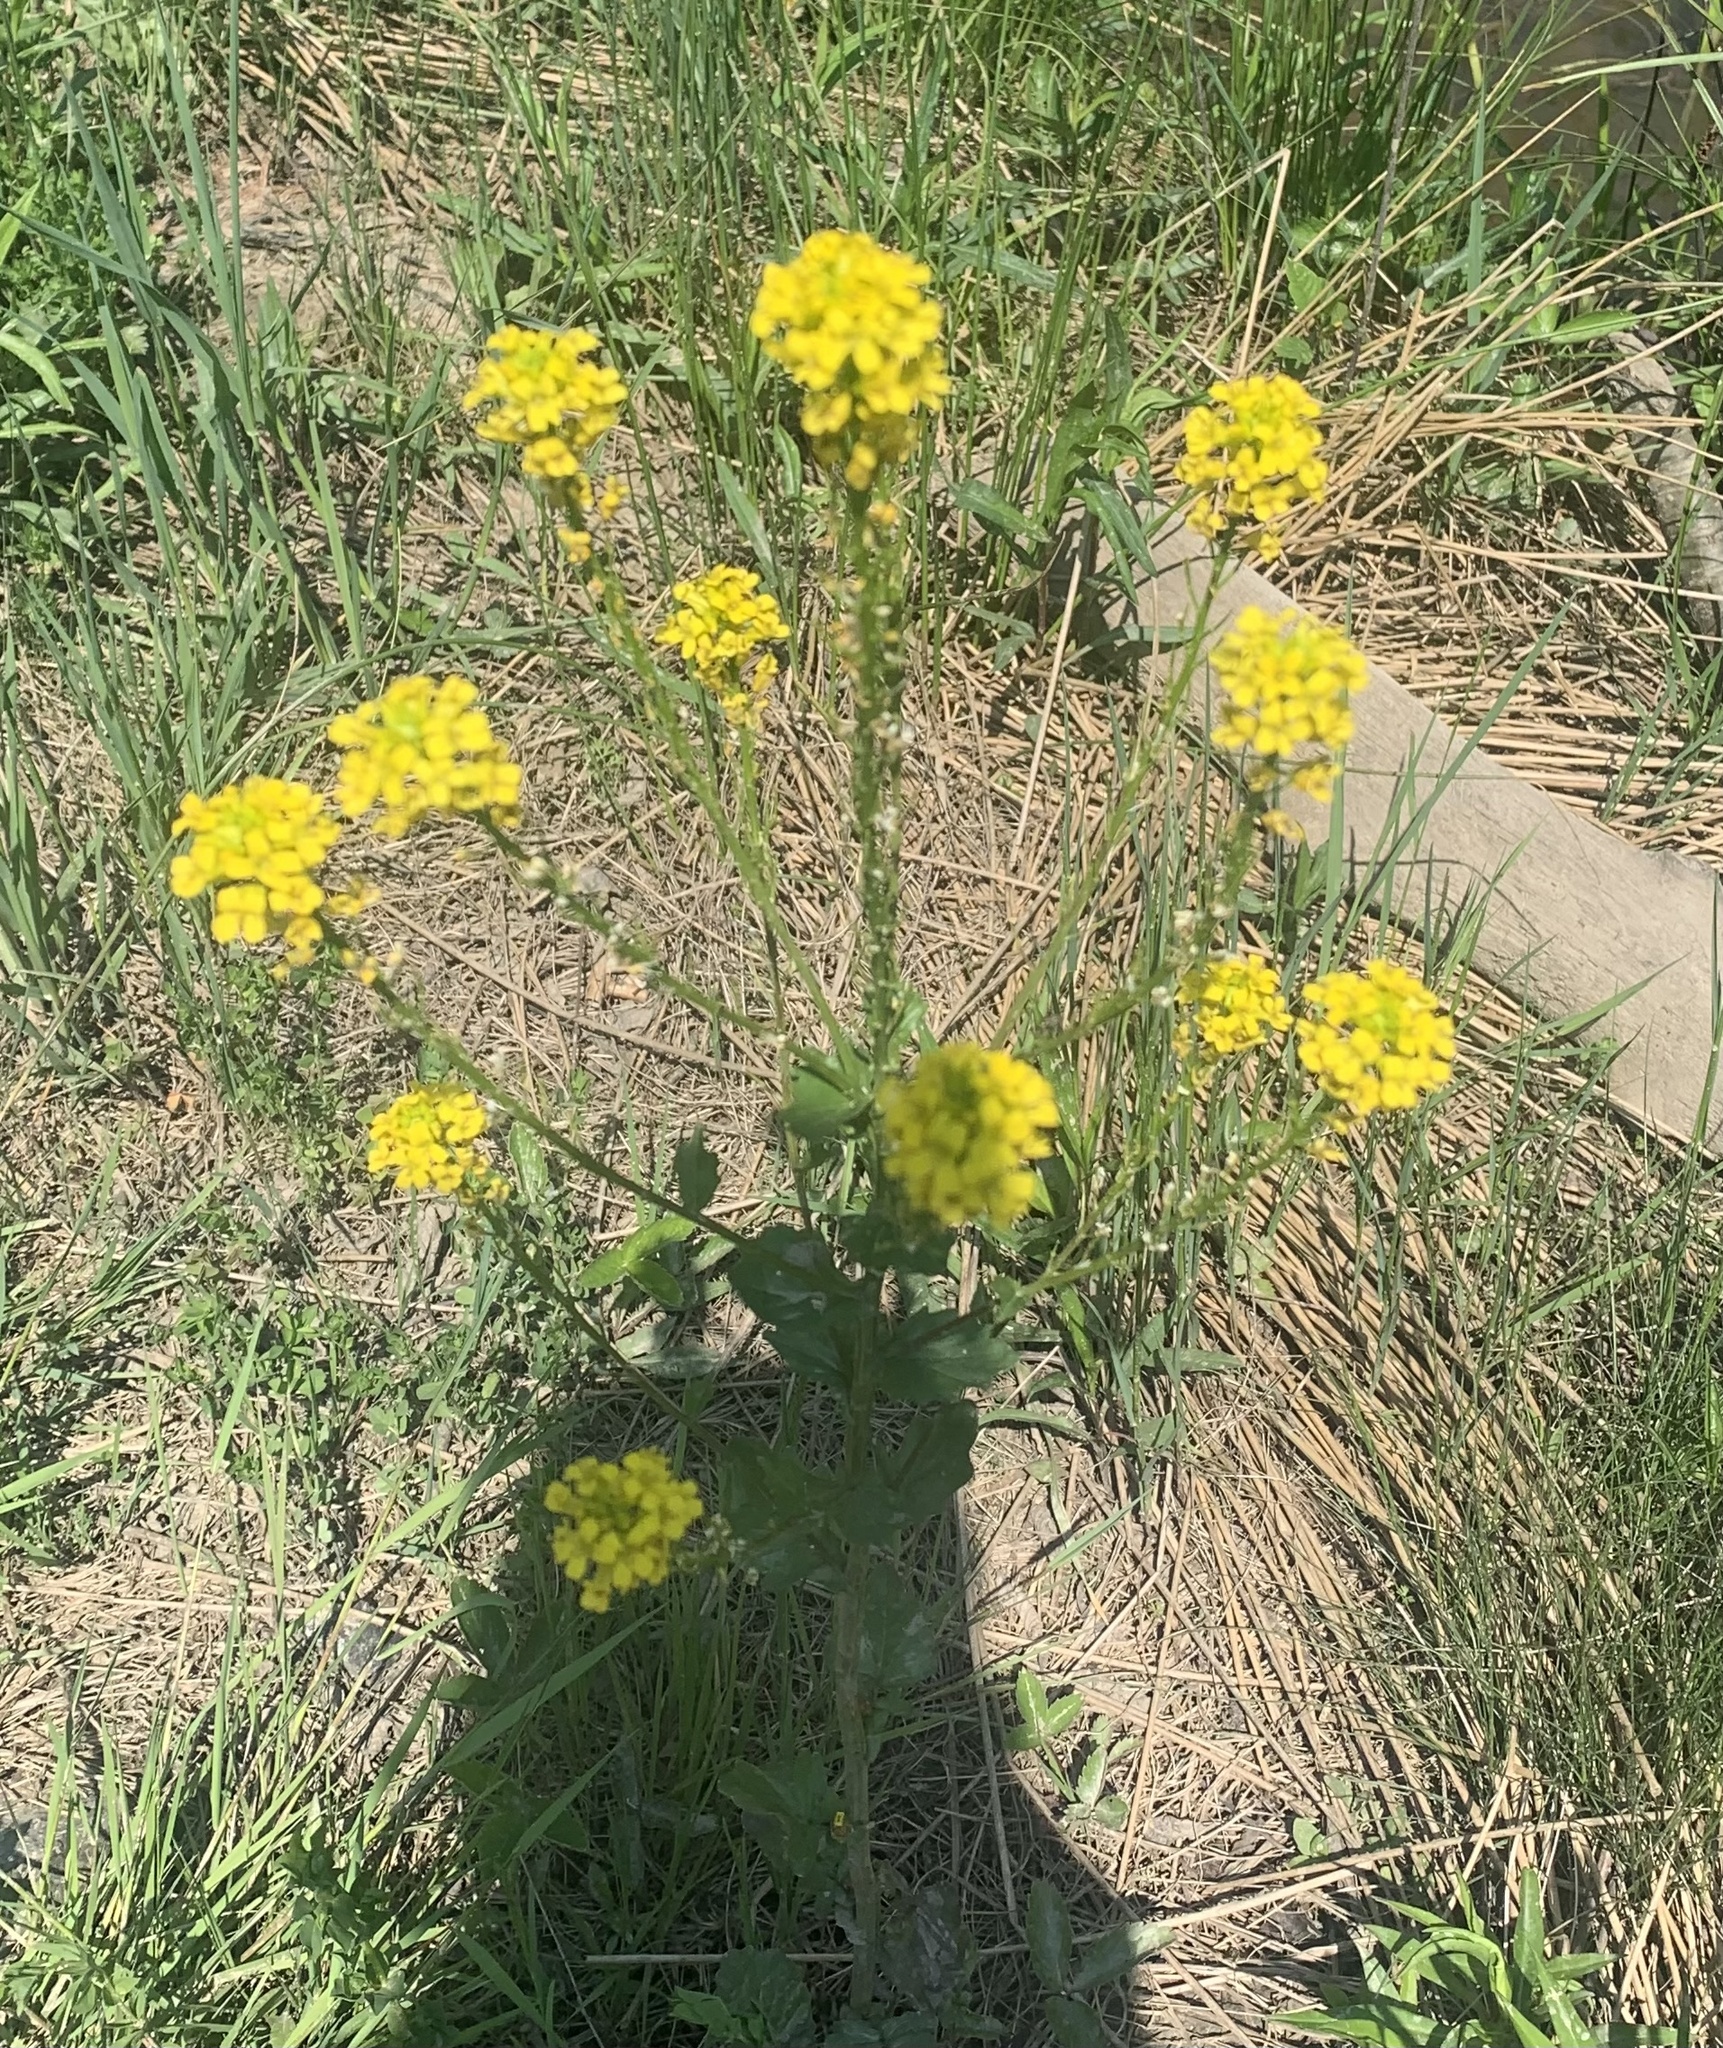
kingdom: Plantae
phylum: Tracheophyta
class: Magnoliopsida
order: Brassicales
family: Brassicaceae
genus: Barbarea
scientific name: Barbarea vulgaris
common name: Cressy-greens
